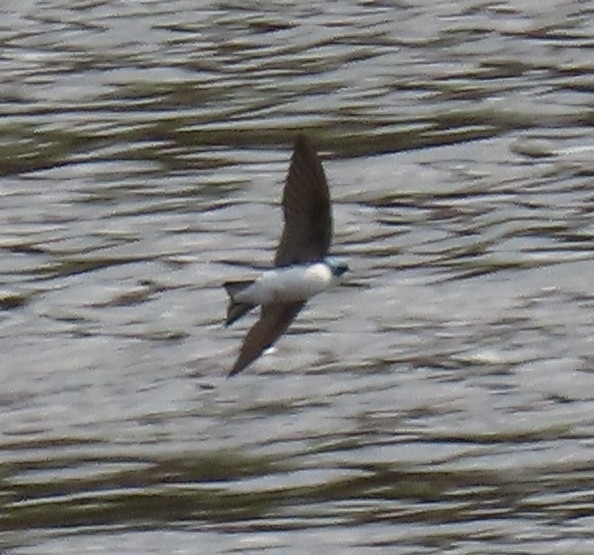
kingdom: Animalia
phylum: Chordata
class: Aves
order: Passeriformes
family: Hirundinidae
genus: Tachycineta
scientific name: Tachycineta bicolor
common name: Tree swallow
